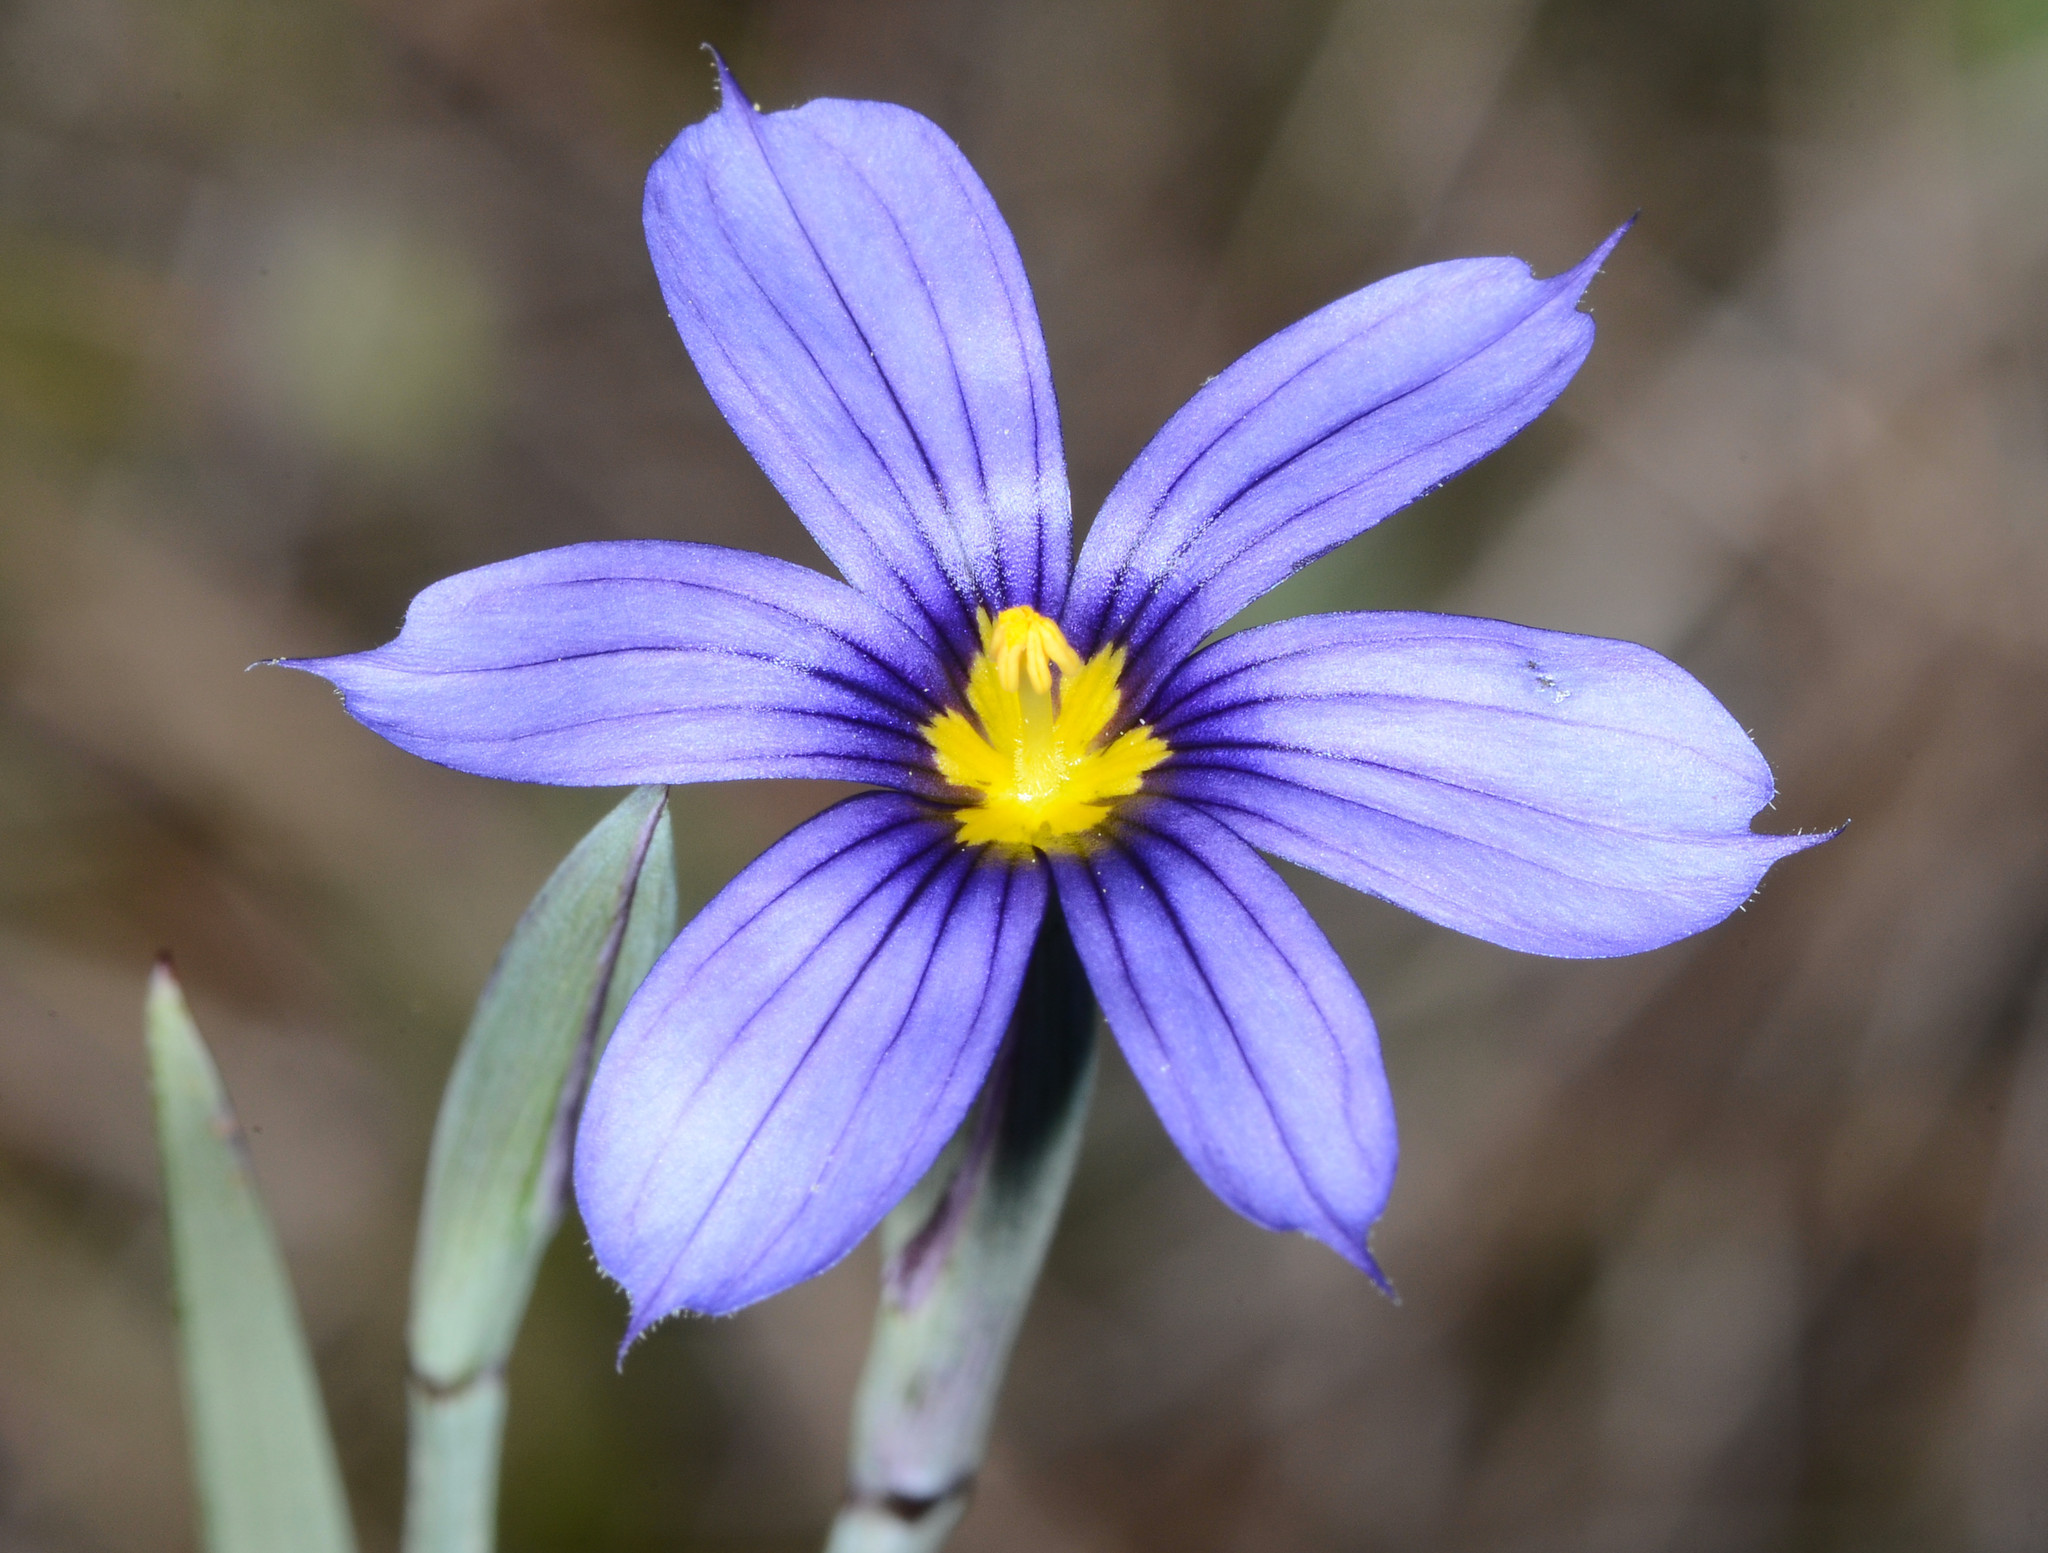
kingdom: Plantae
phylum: Tracheophyta
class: Liliopsida
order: Asparagales
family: Iridaceae
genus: Sisyrinchium
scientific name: Sisyrinchium bellum
